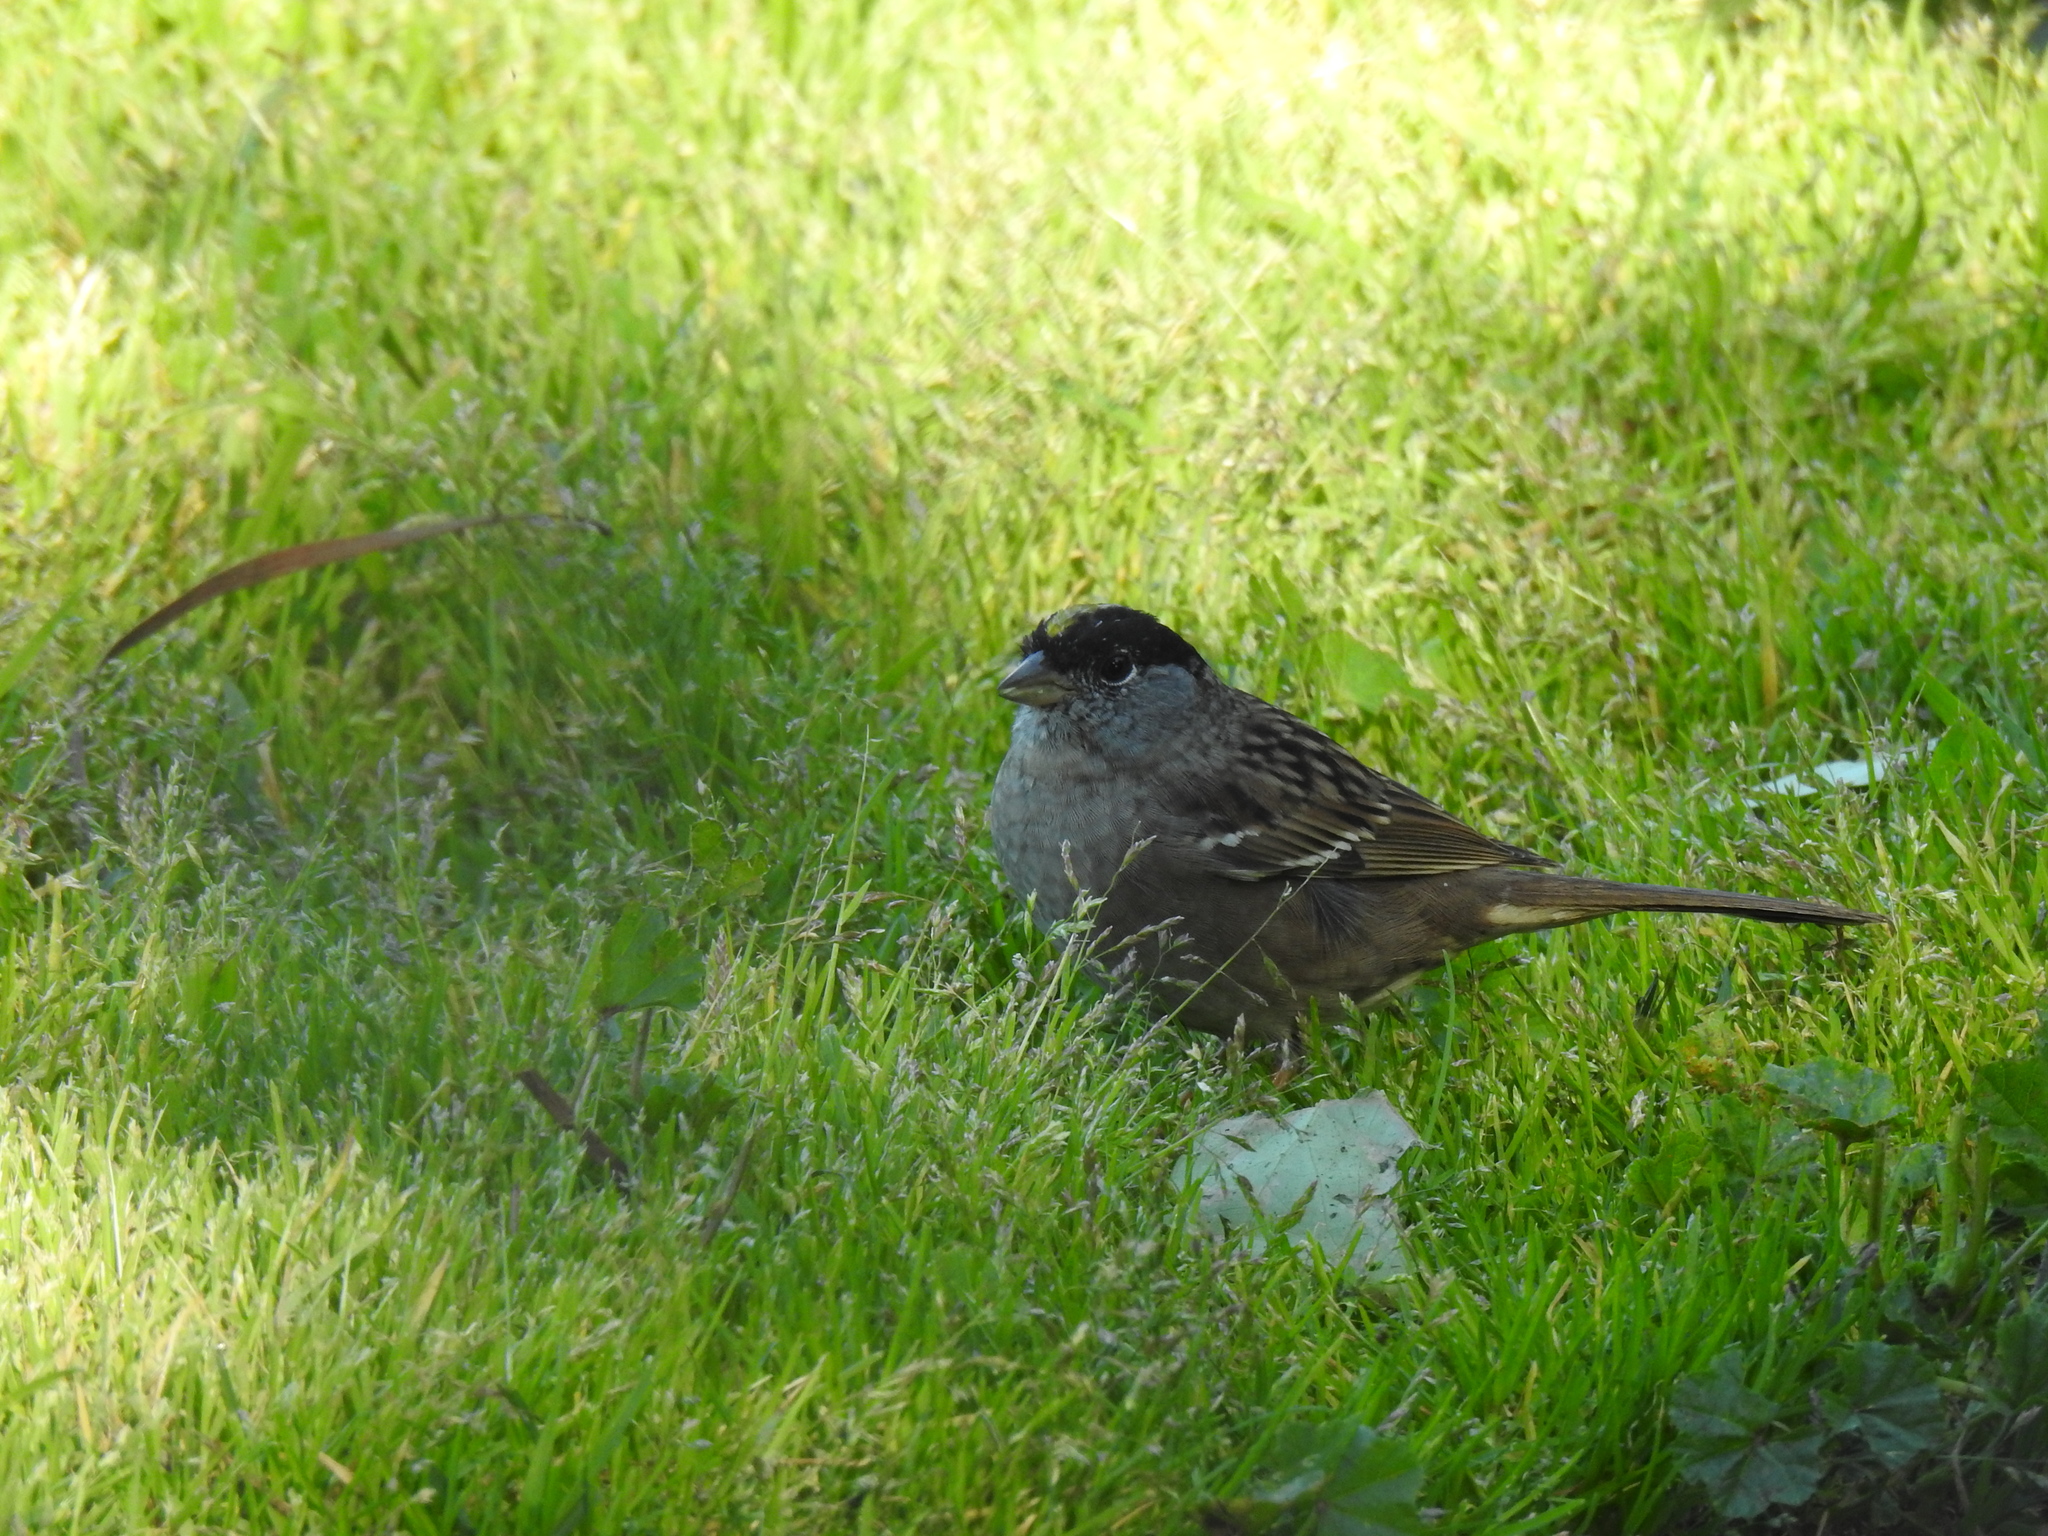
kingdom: Animalia
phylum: Chordata
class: Aves
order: Passeriformes
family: Passerellidae
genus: Zonotrichia
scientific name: Zonotrichia atricapilla
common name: Golden-crowned sparrow
